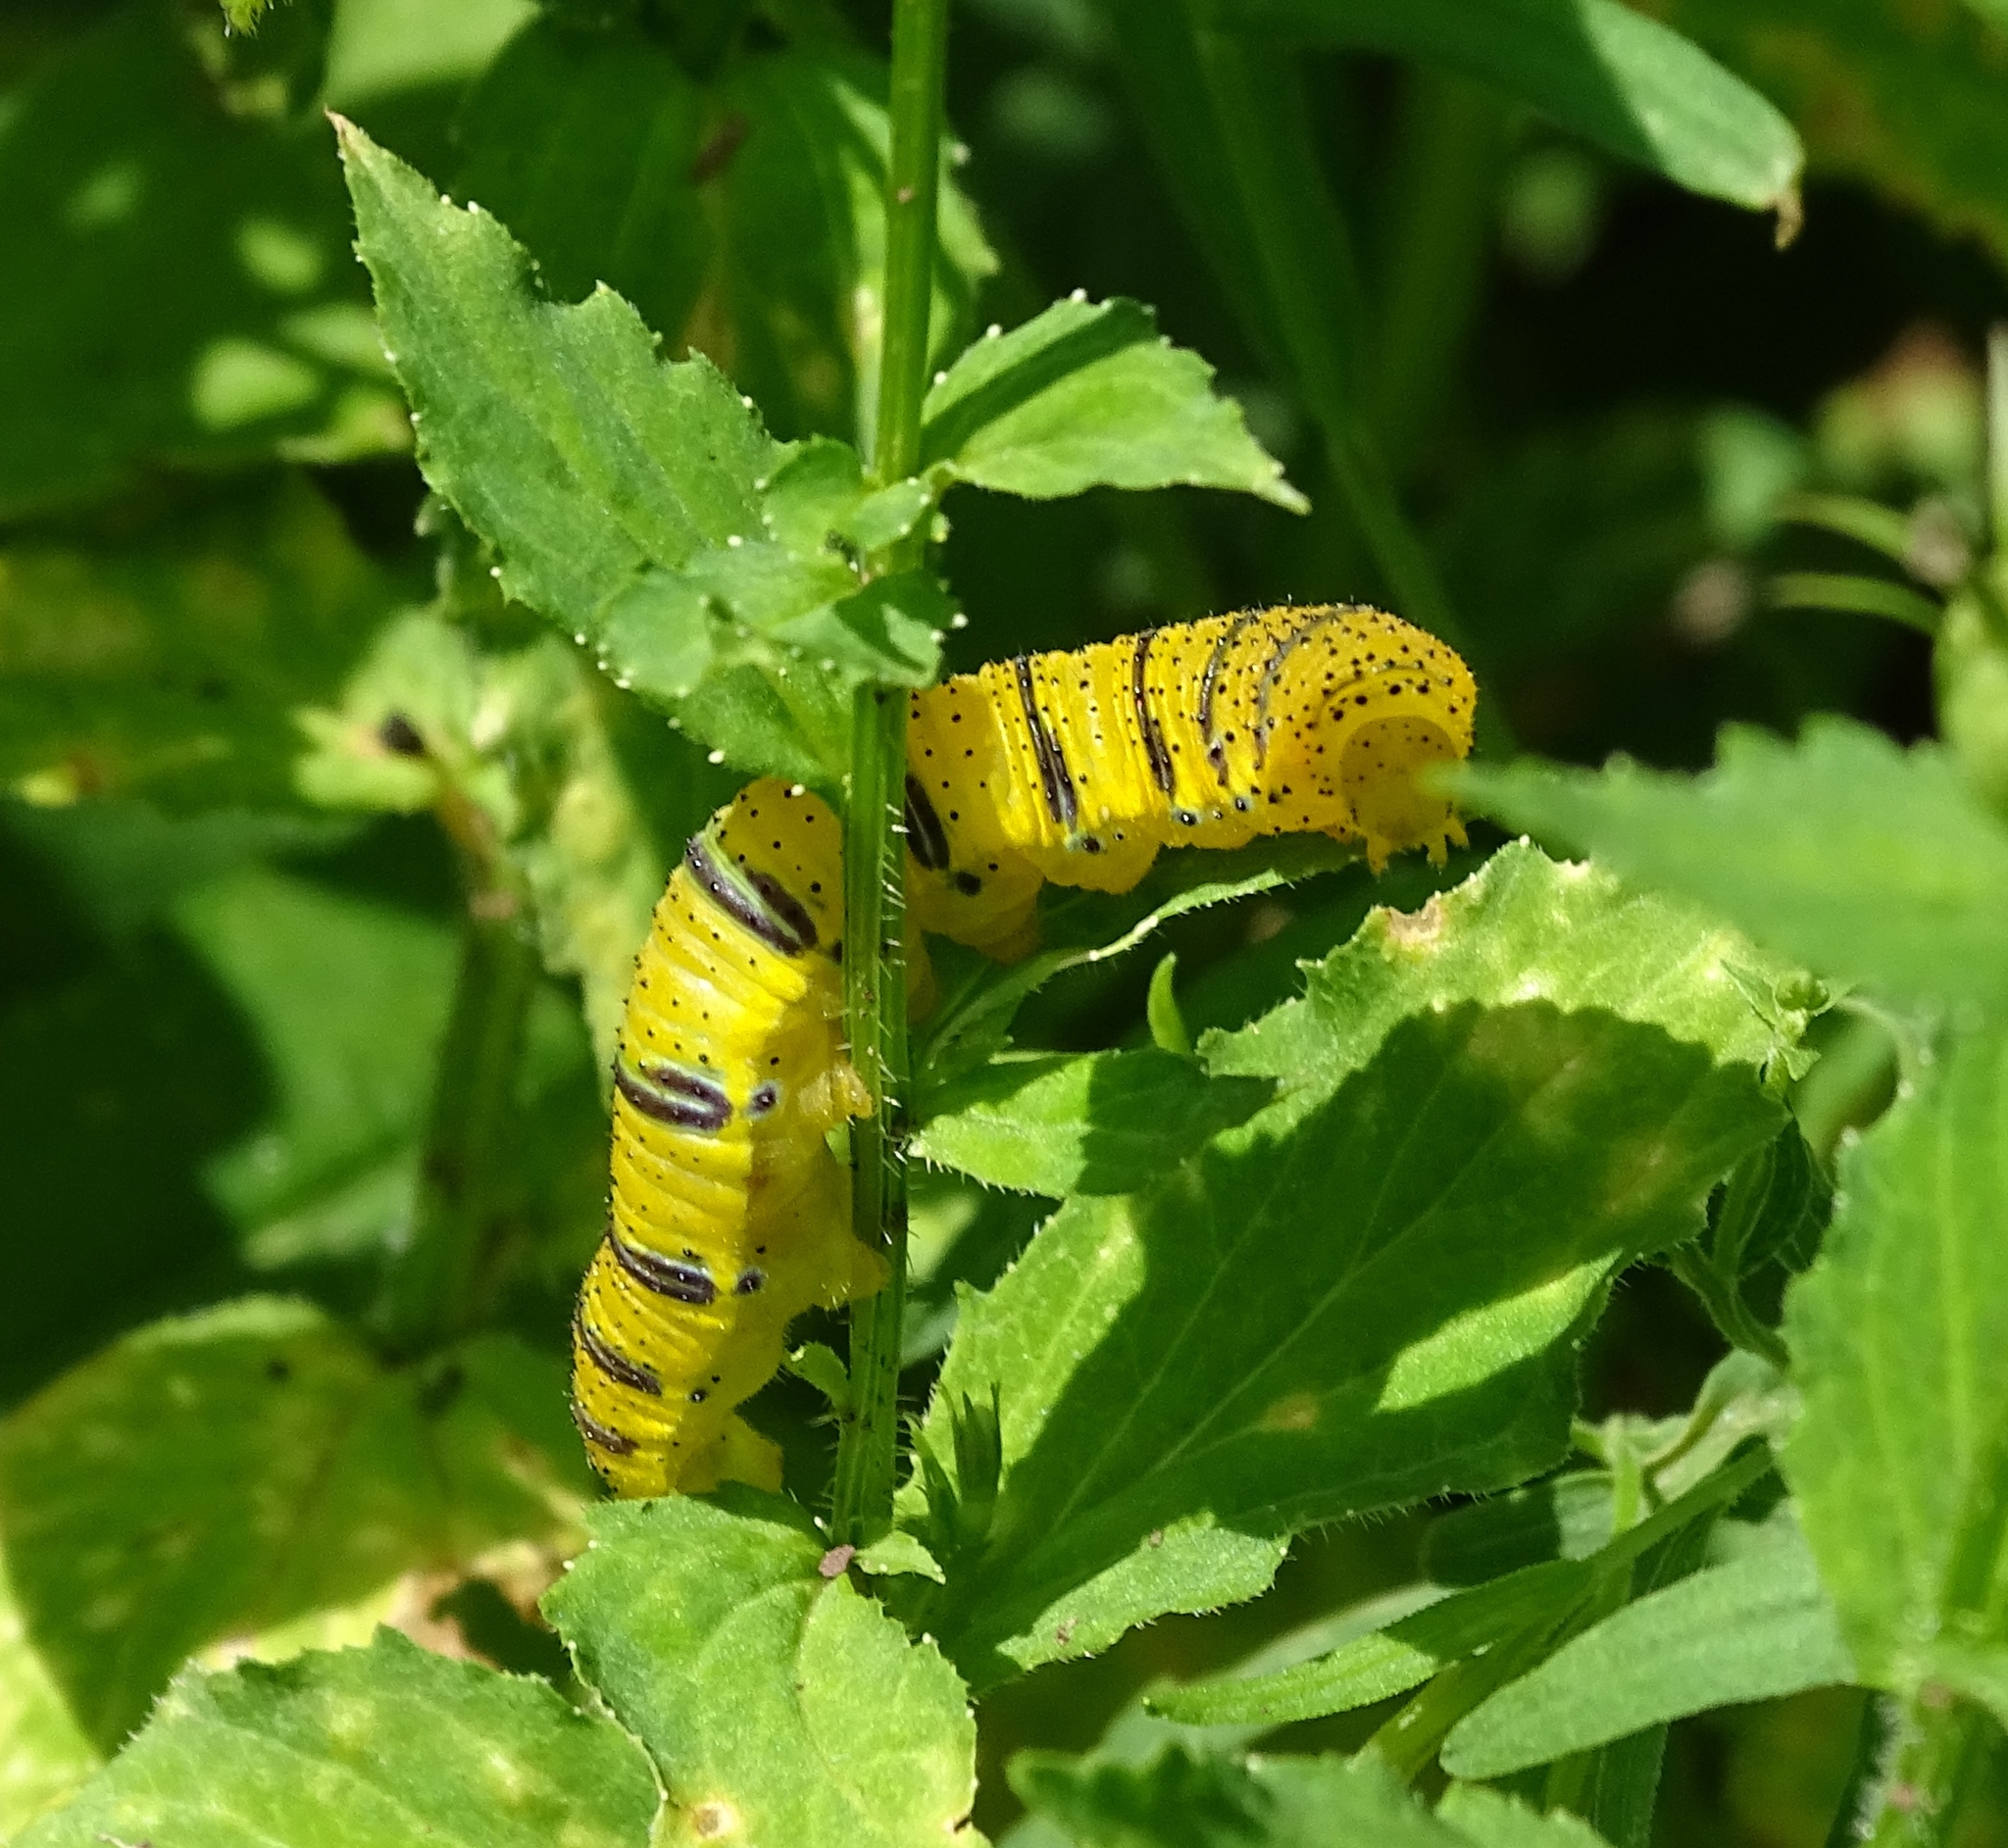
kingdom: Animalia
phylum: Arthropoda
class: Insecta
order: Lepidoptera
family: Pieridae
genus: Phoebis
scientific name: Phoebis sennae
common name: Cloudless sulphur
